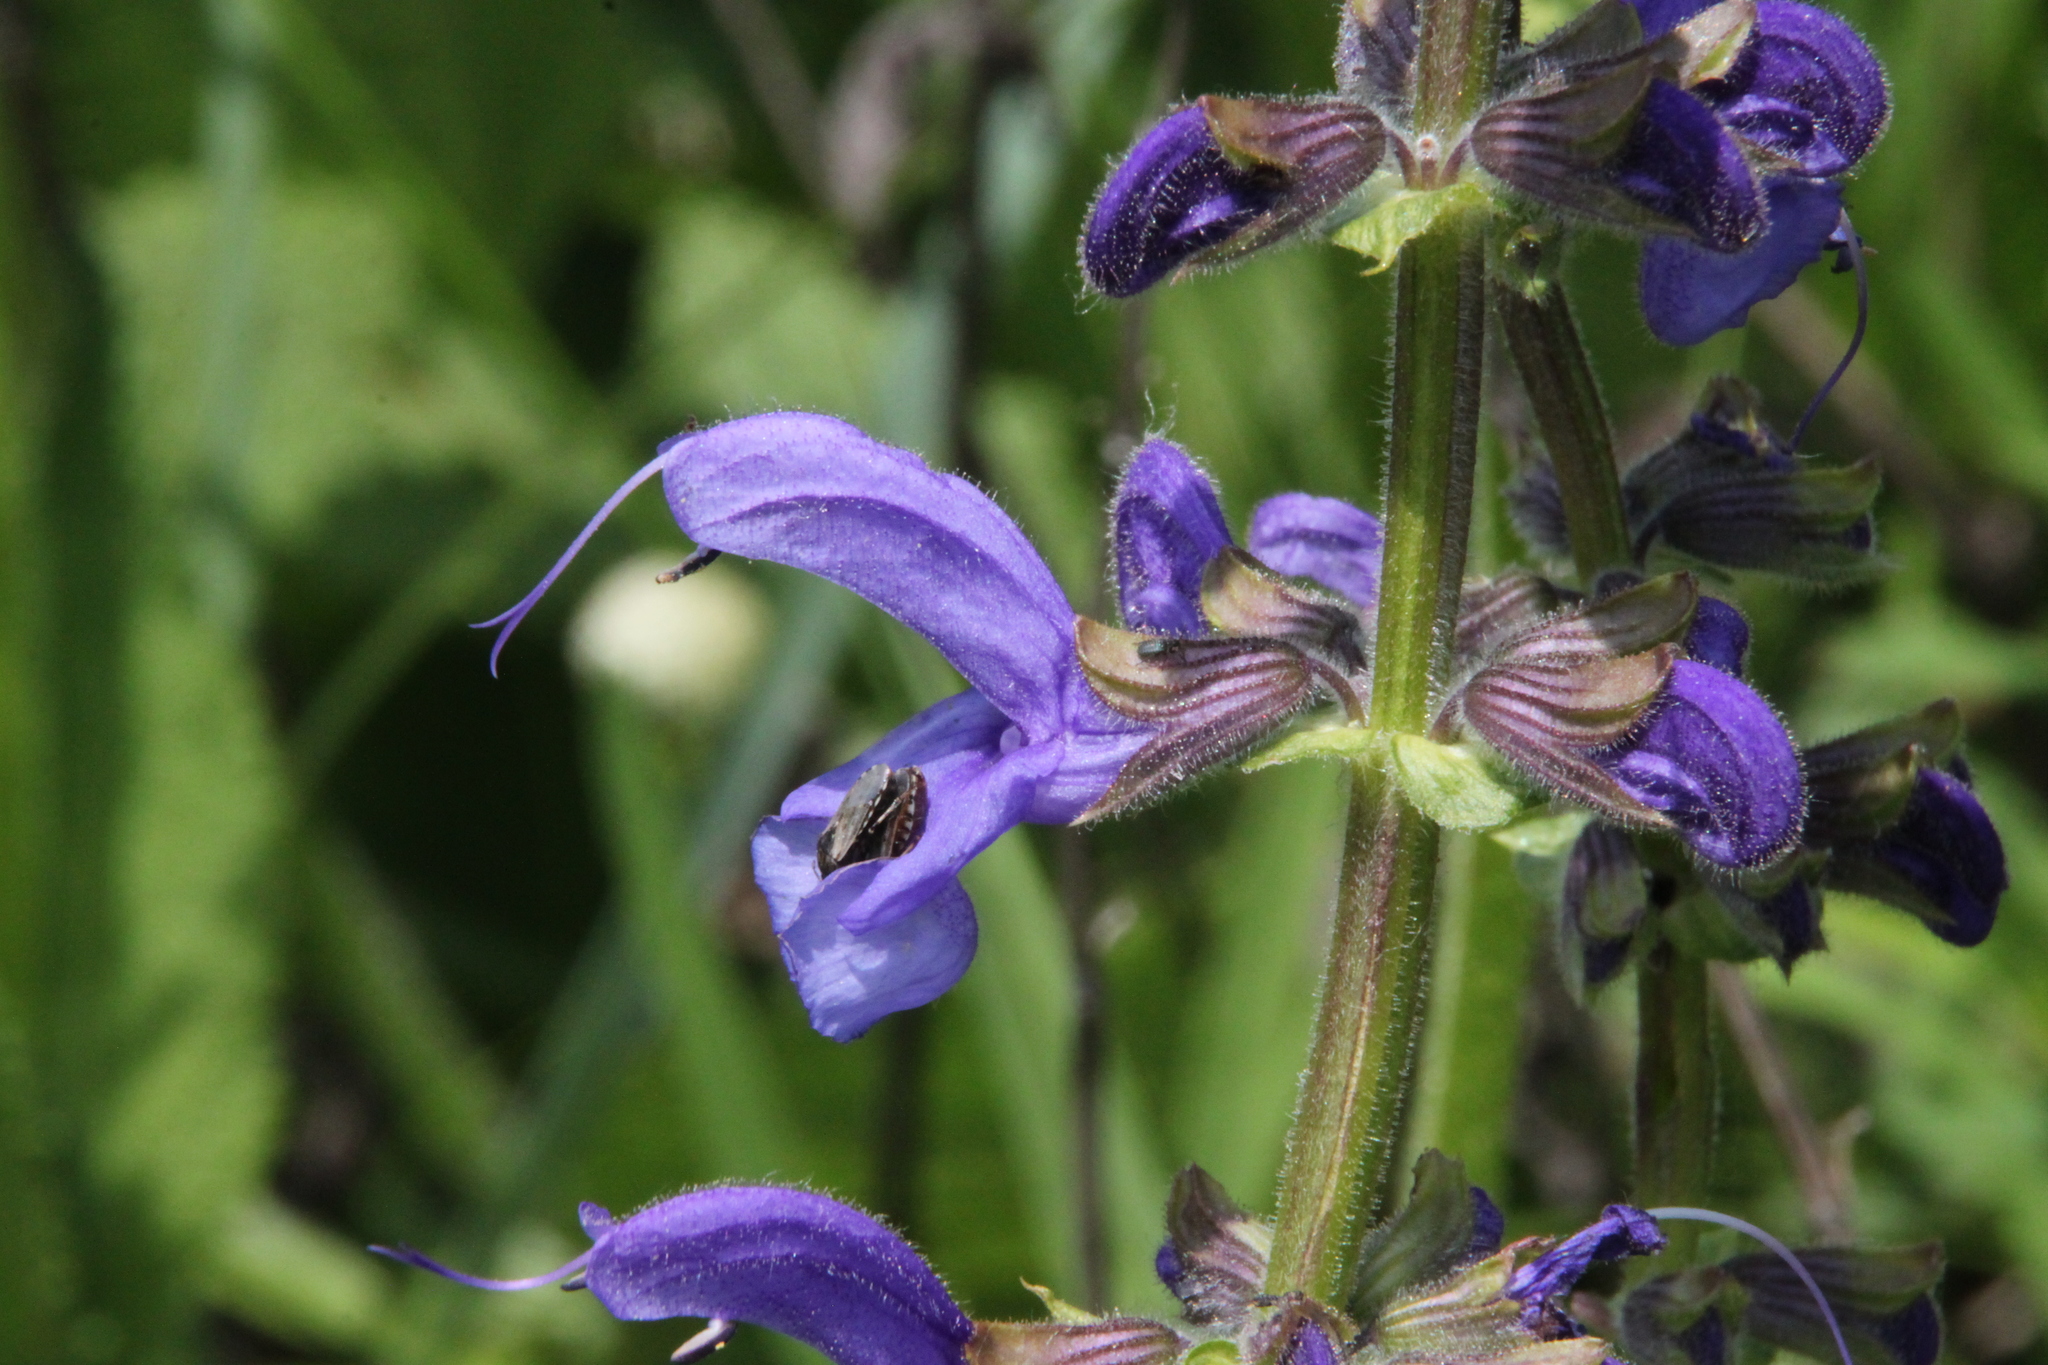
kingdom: Plantae
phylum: Tracheophyta
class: Magnoliopsida
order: Lamiales
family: Lamiaceae
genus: Salvia
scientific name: Salvia pratensis
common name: Meadow sage
